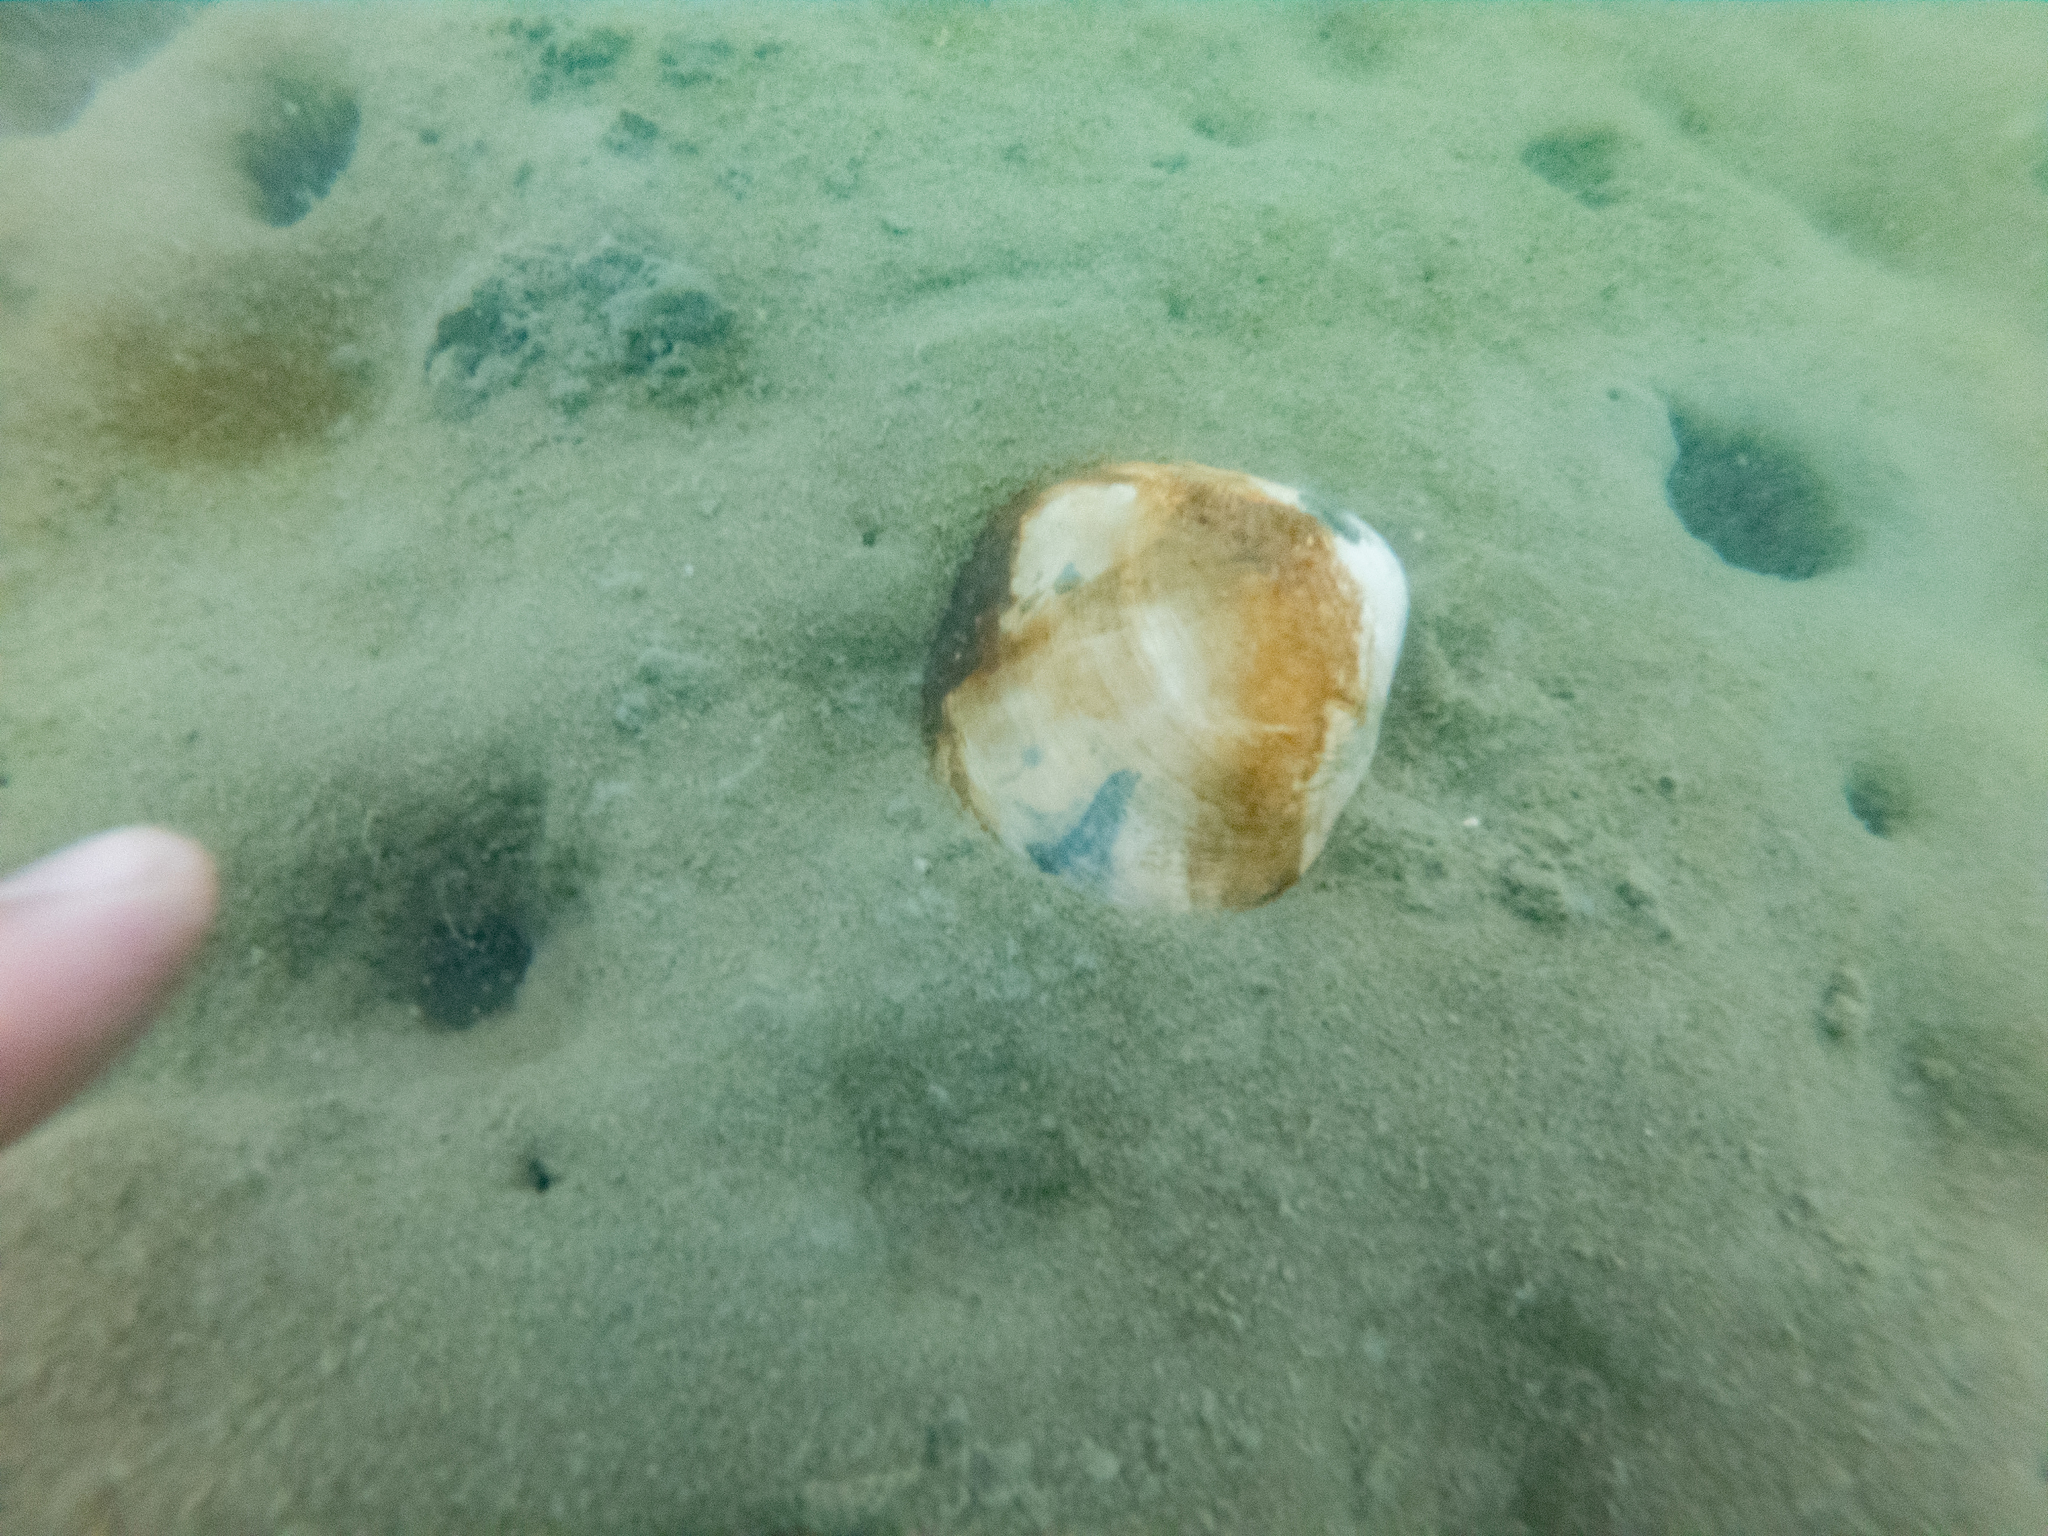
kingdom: Animalia
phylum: Mollusca
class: Bivalvia
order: Venerida
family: Mactridae
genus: Cyclomactra
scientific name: Cyclomactra ovata
